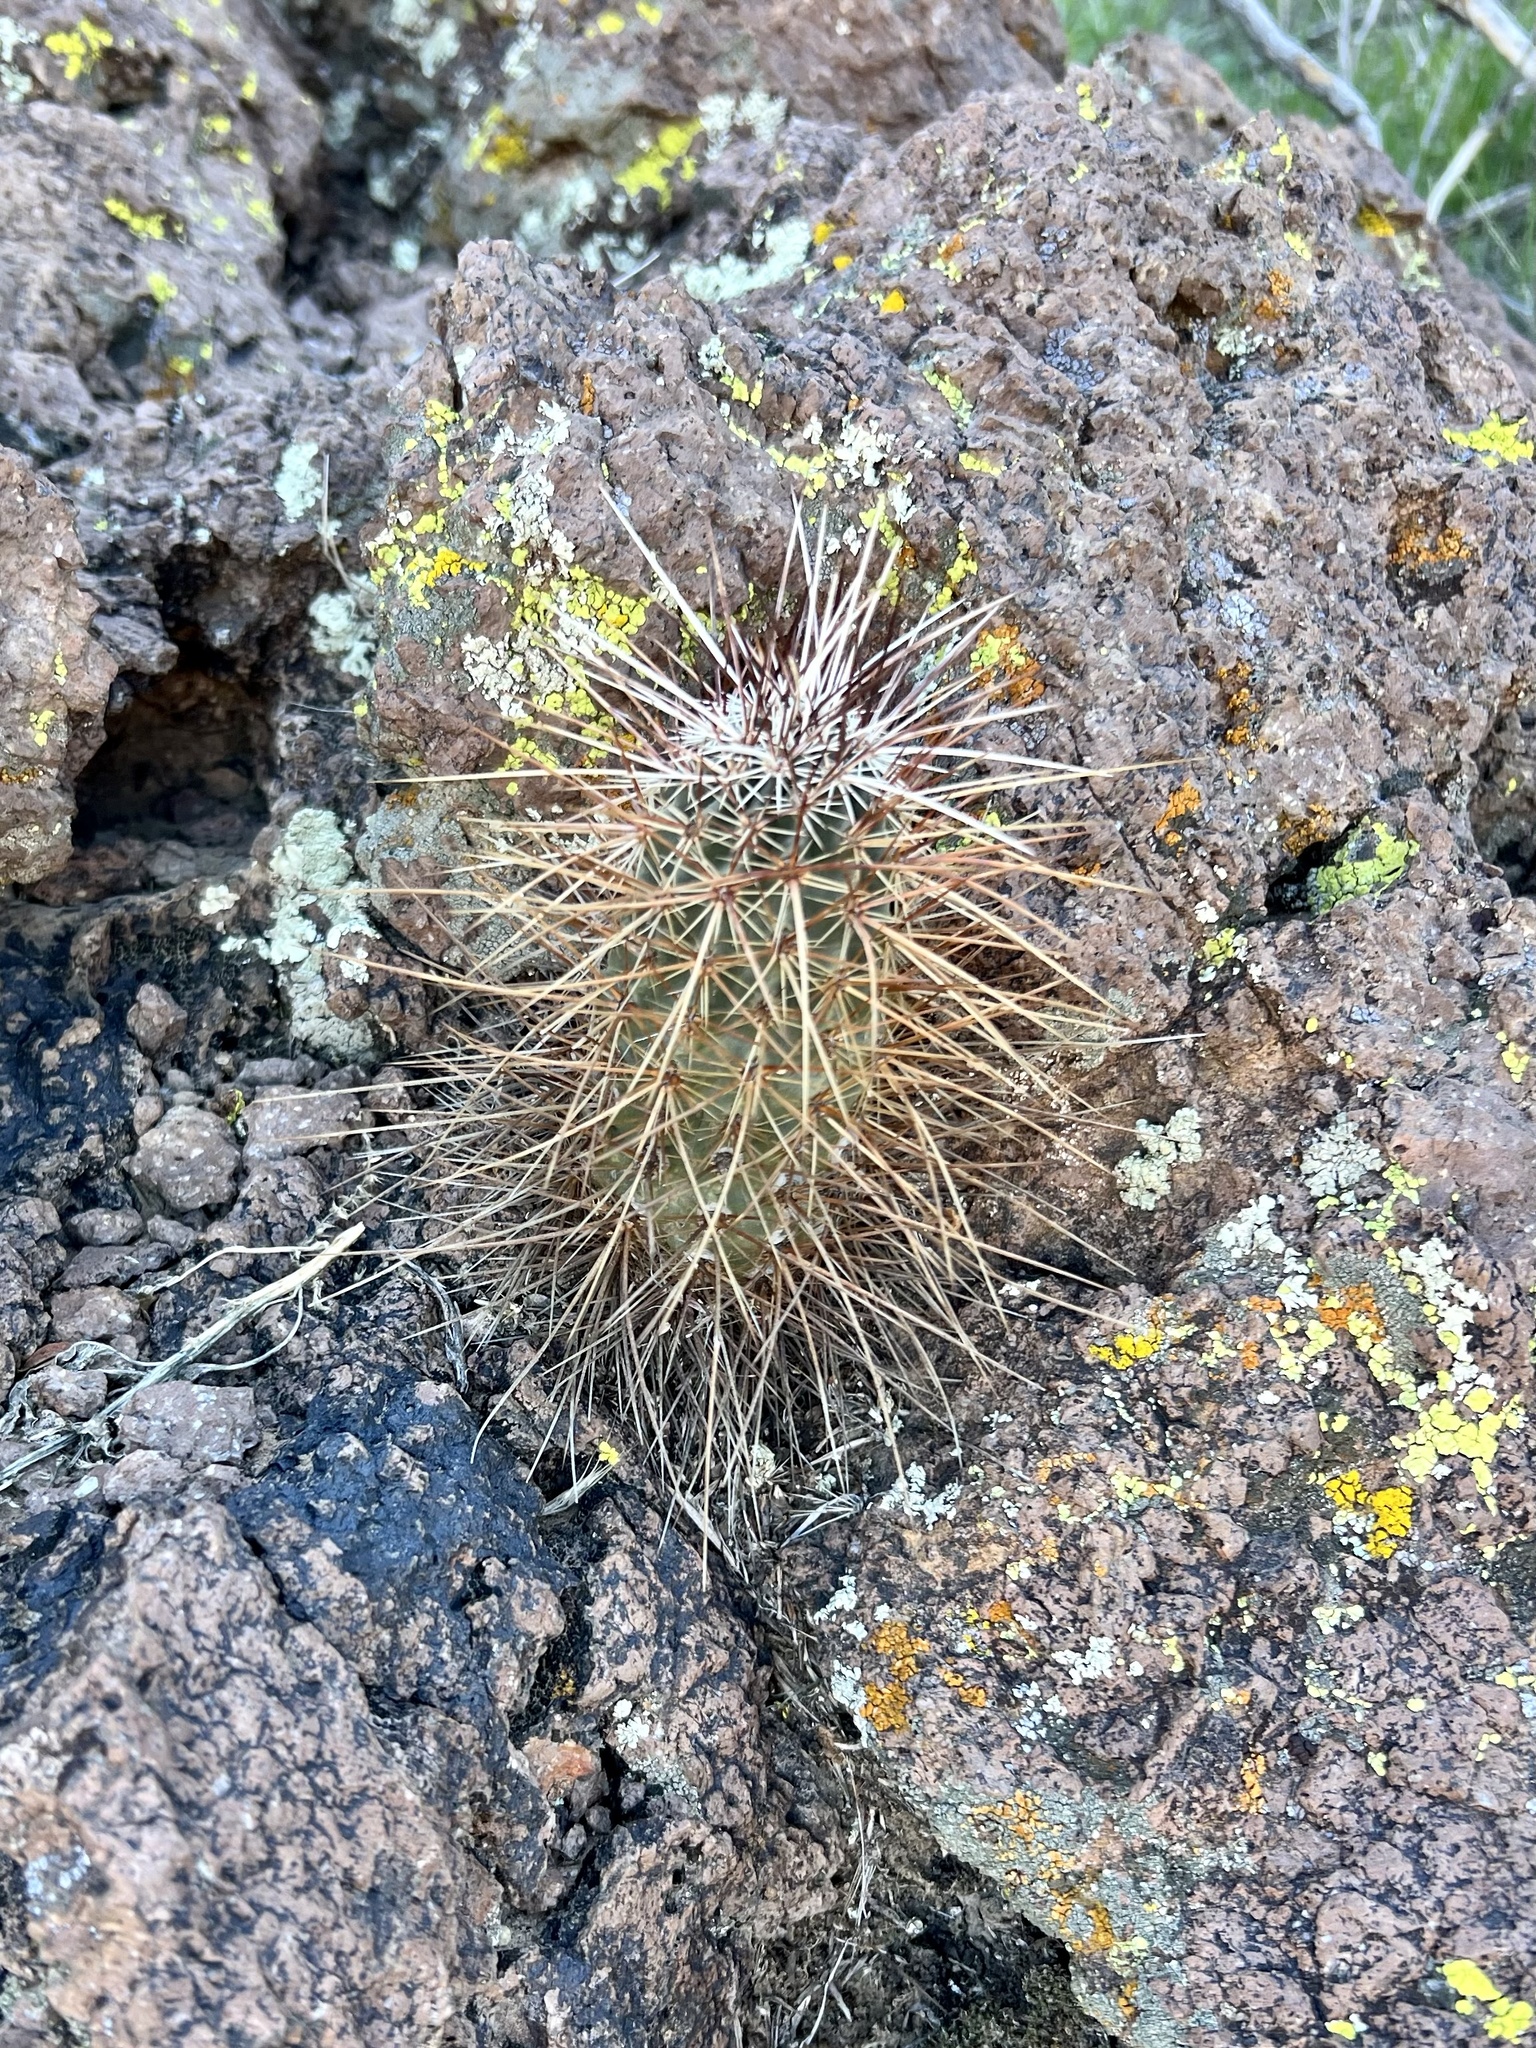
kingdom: Plantae
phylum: Tracheophyta
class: Magnoliopsida
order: Caryophyllales
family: Cactaceae
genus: Echinocereus
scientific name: Echinocereus engelmannii
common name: Engelmann's hedgehog cactus
